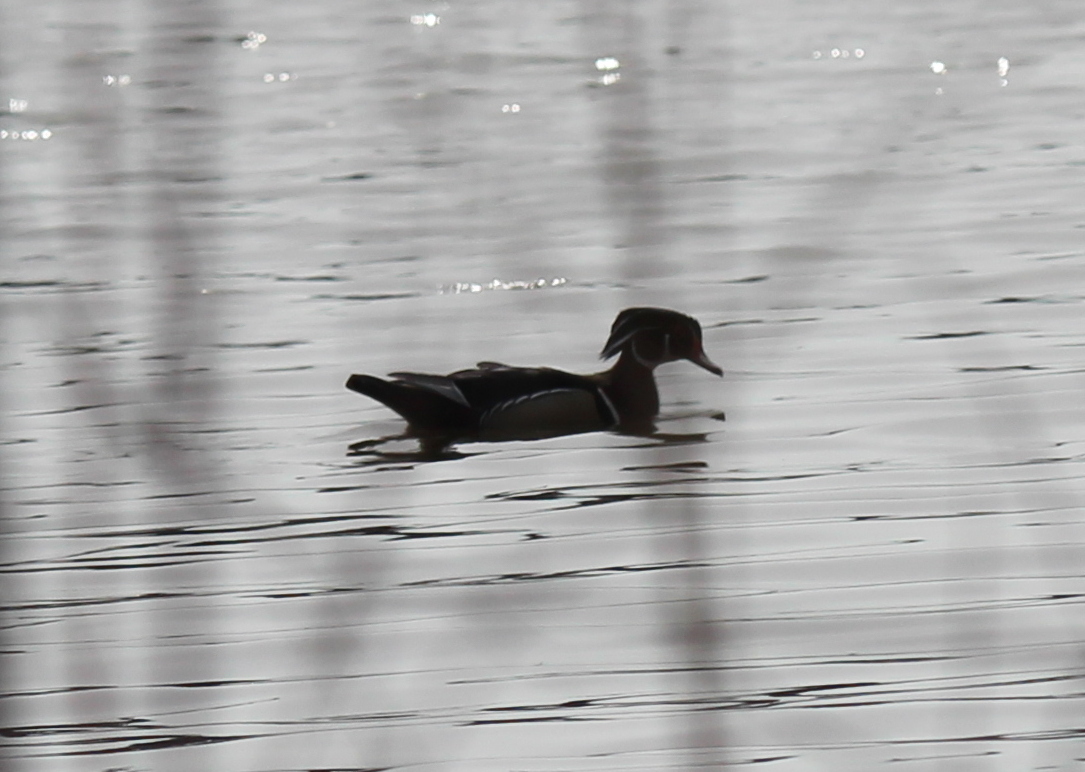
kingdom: Animalia
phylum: Chordata
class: Aves
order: Anseriformes
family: Anatidae
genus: Aix
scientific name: Aix sponsa
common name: Wood duck
